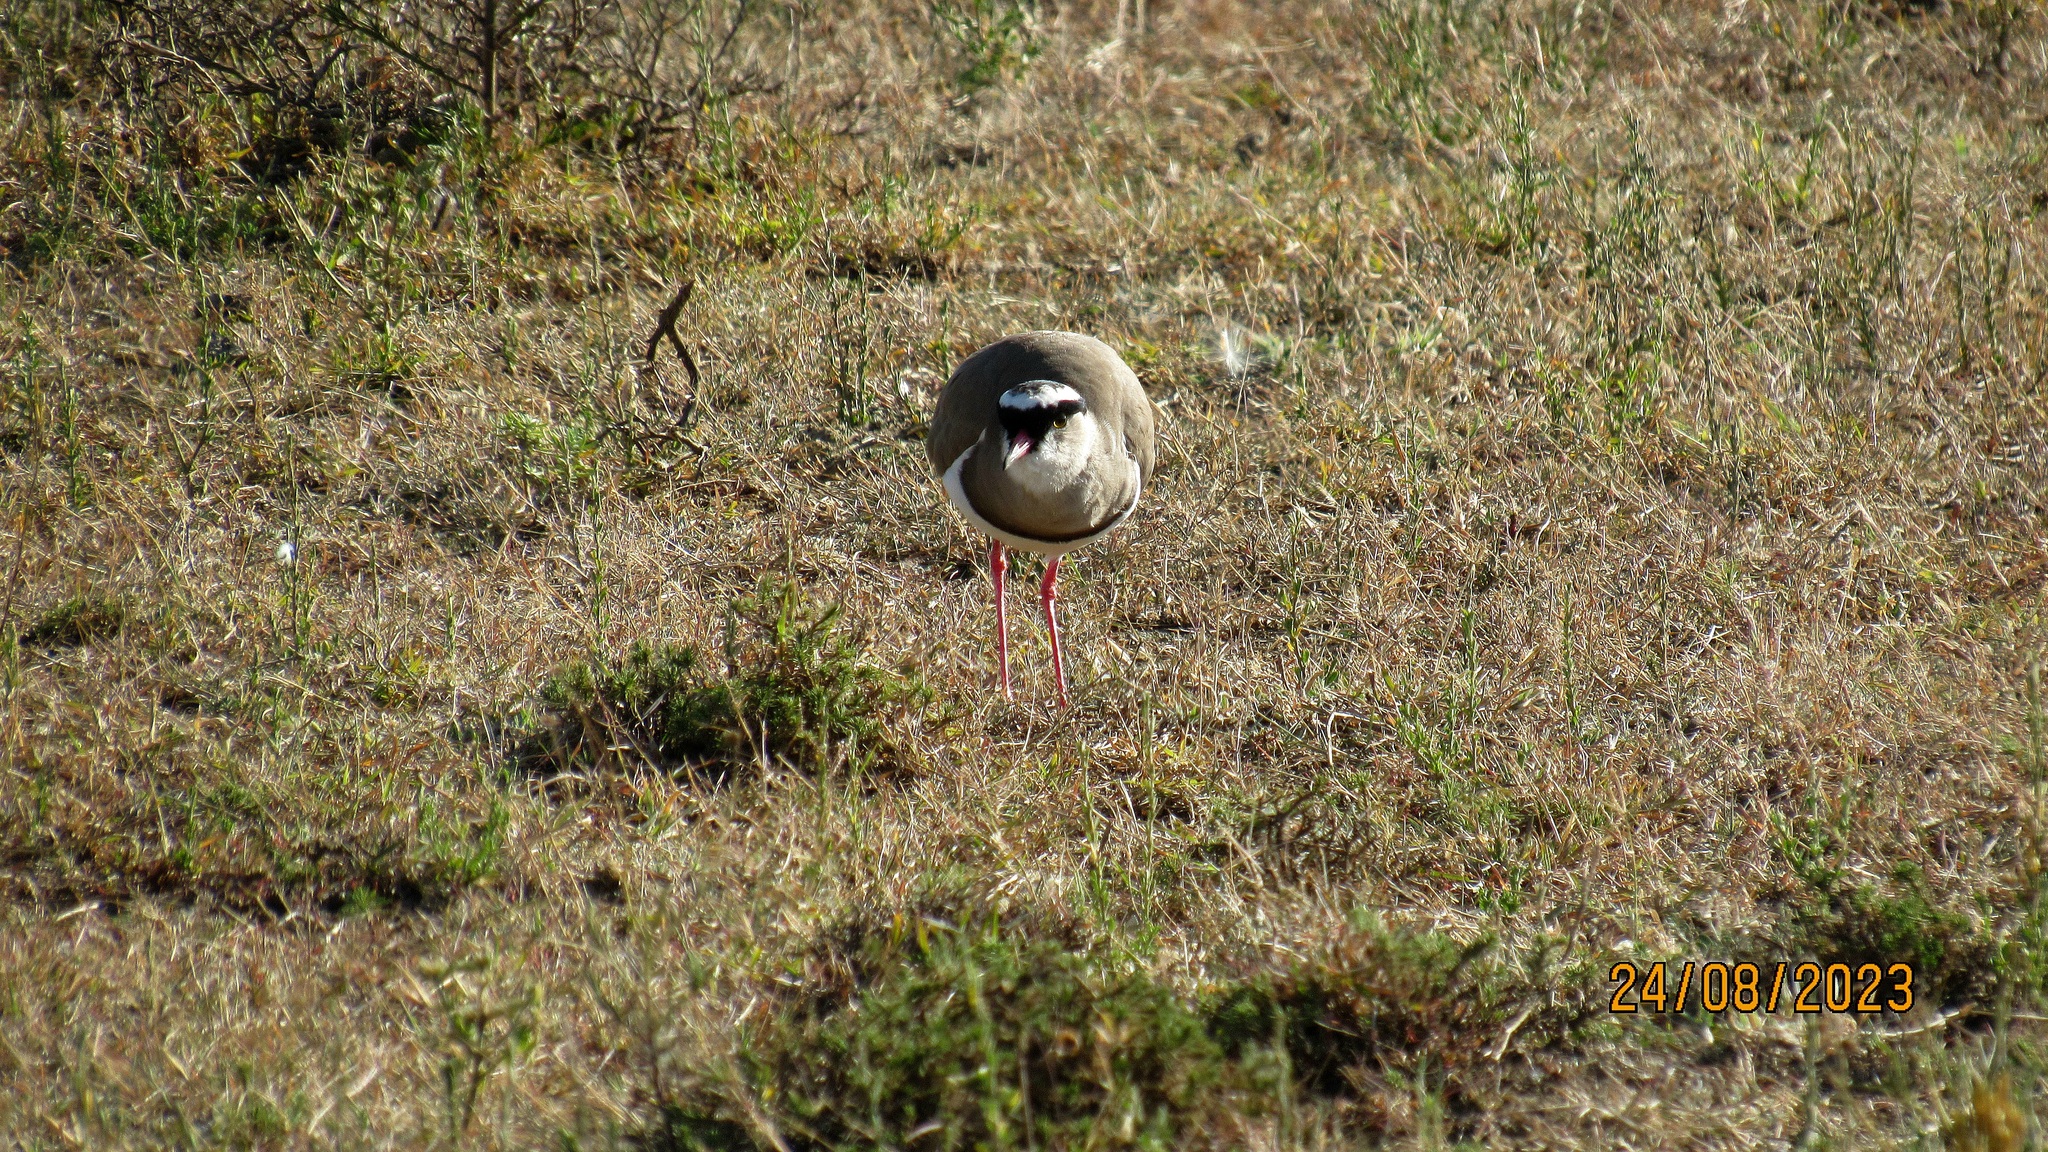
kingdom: Animalia
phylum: Chordata
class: Aves
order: Charadriiformes
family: Charadriidae
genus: Vanellus
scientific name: Vanellus coronatus
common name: Crowned lapwing
